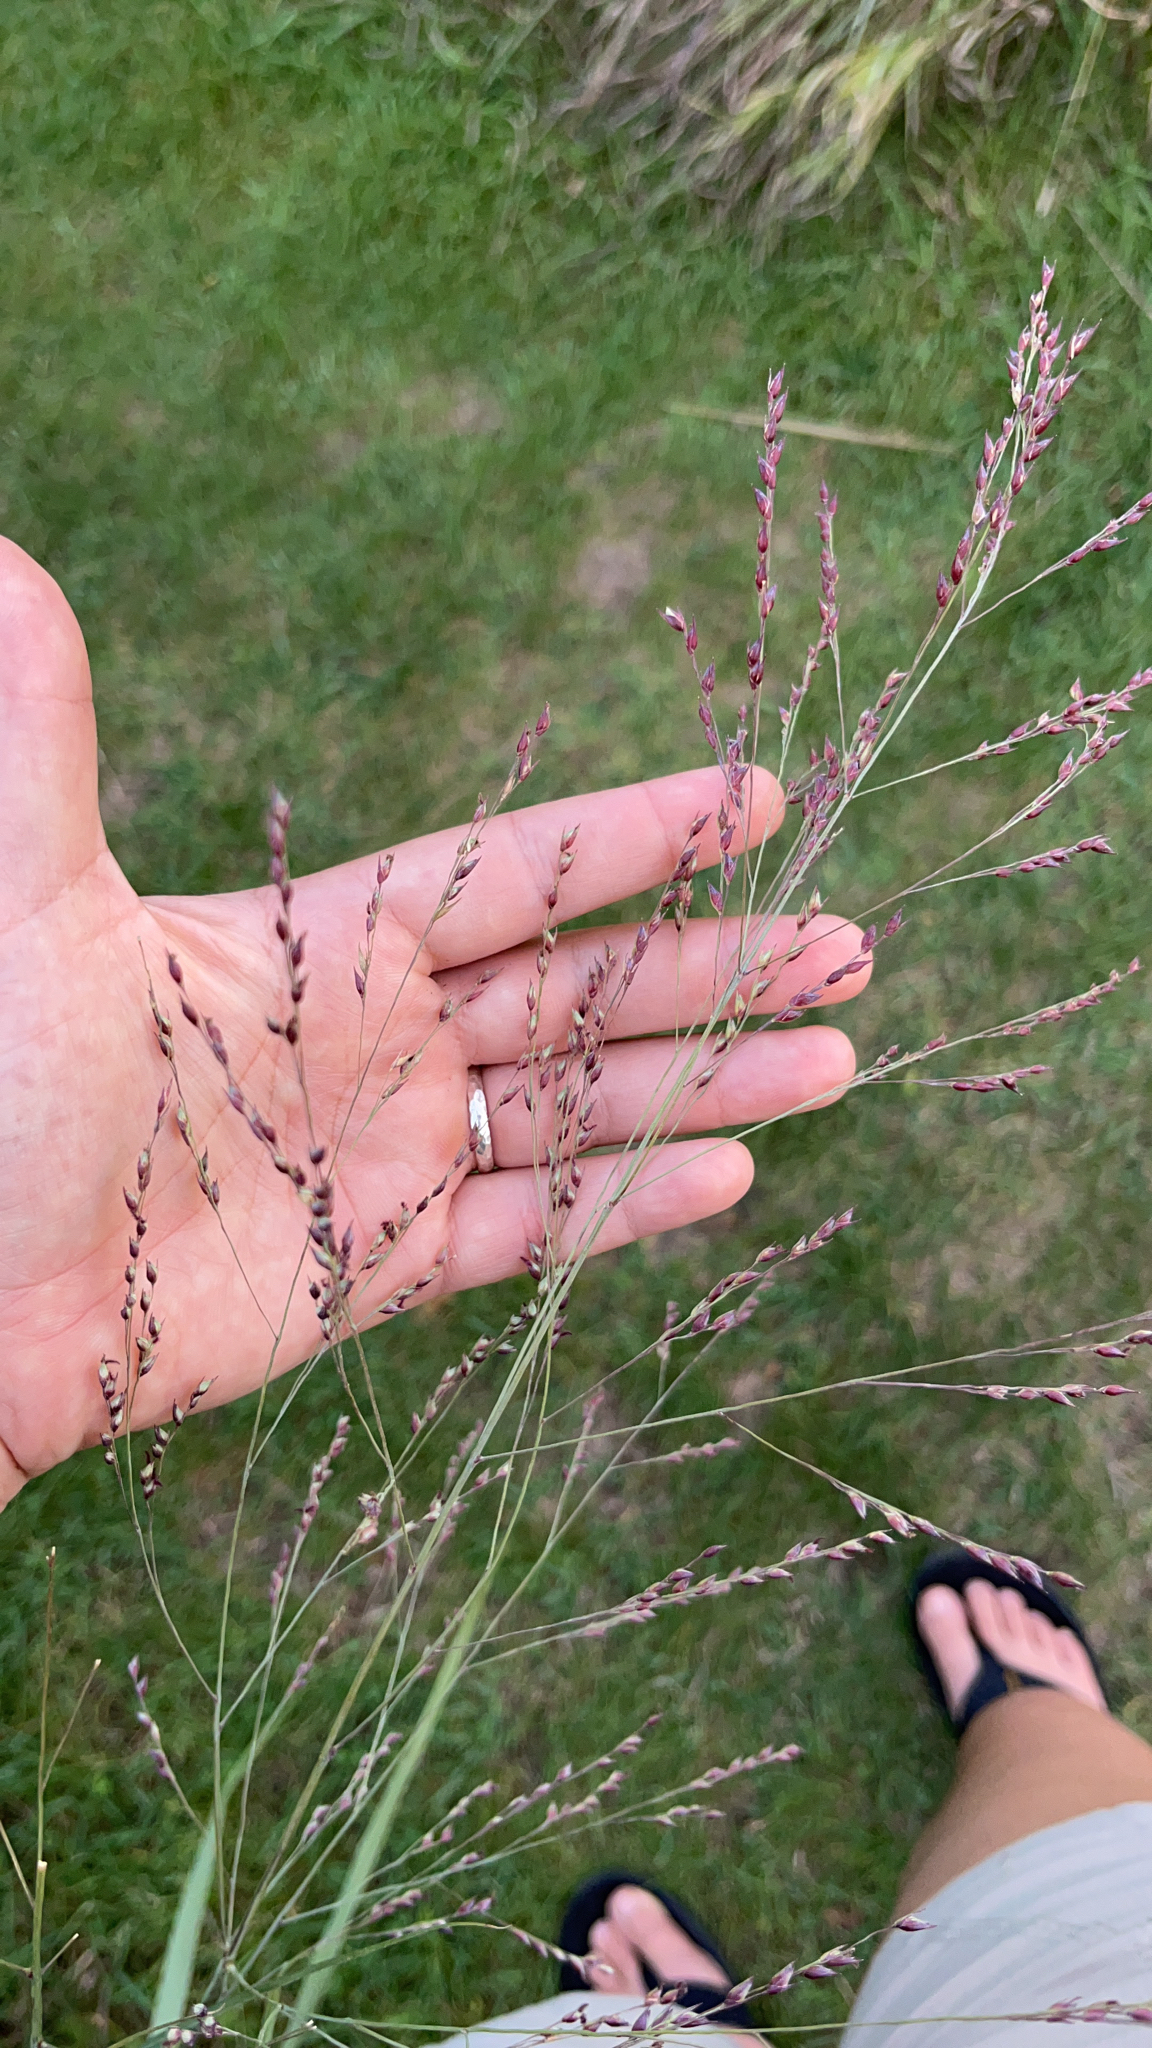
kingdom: Plantae
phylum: Tracheophyta
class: Liliopsida
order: Poales
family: Poaceae
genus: Panicum
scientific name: Panicum virgatum
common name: Switchgrass
